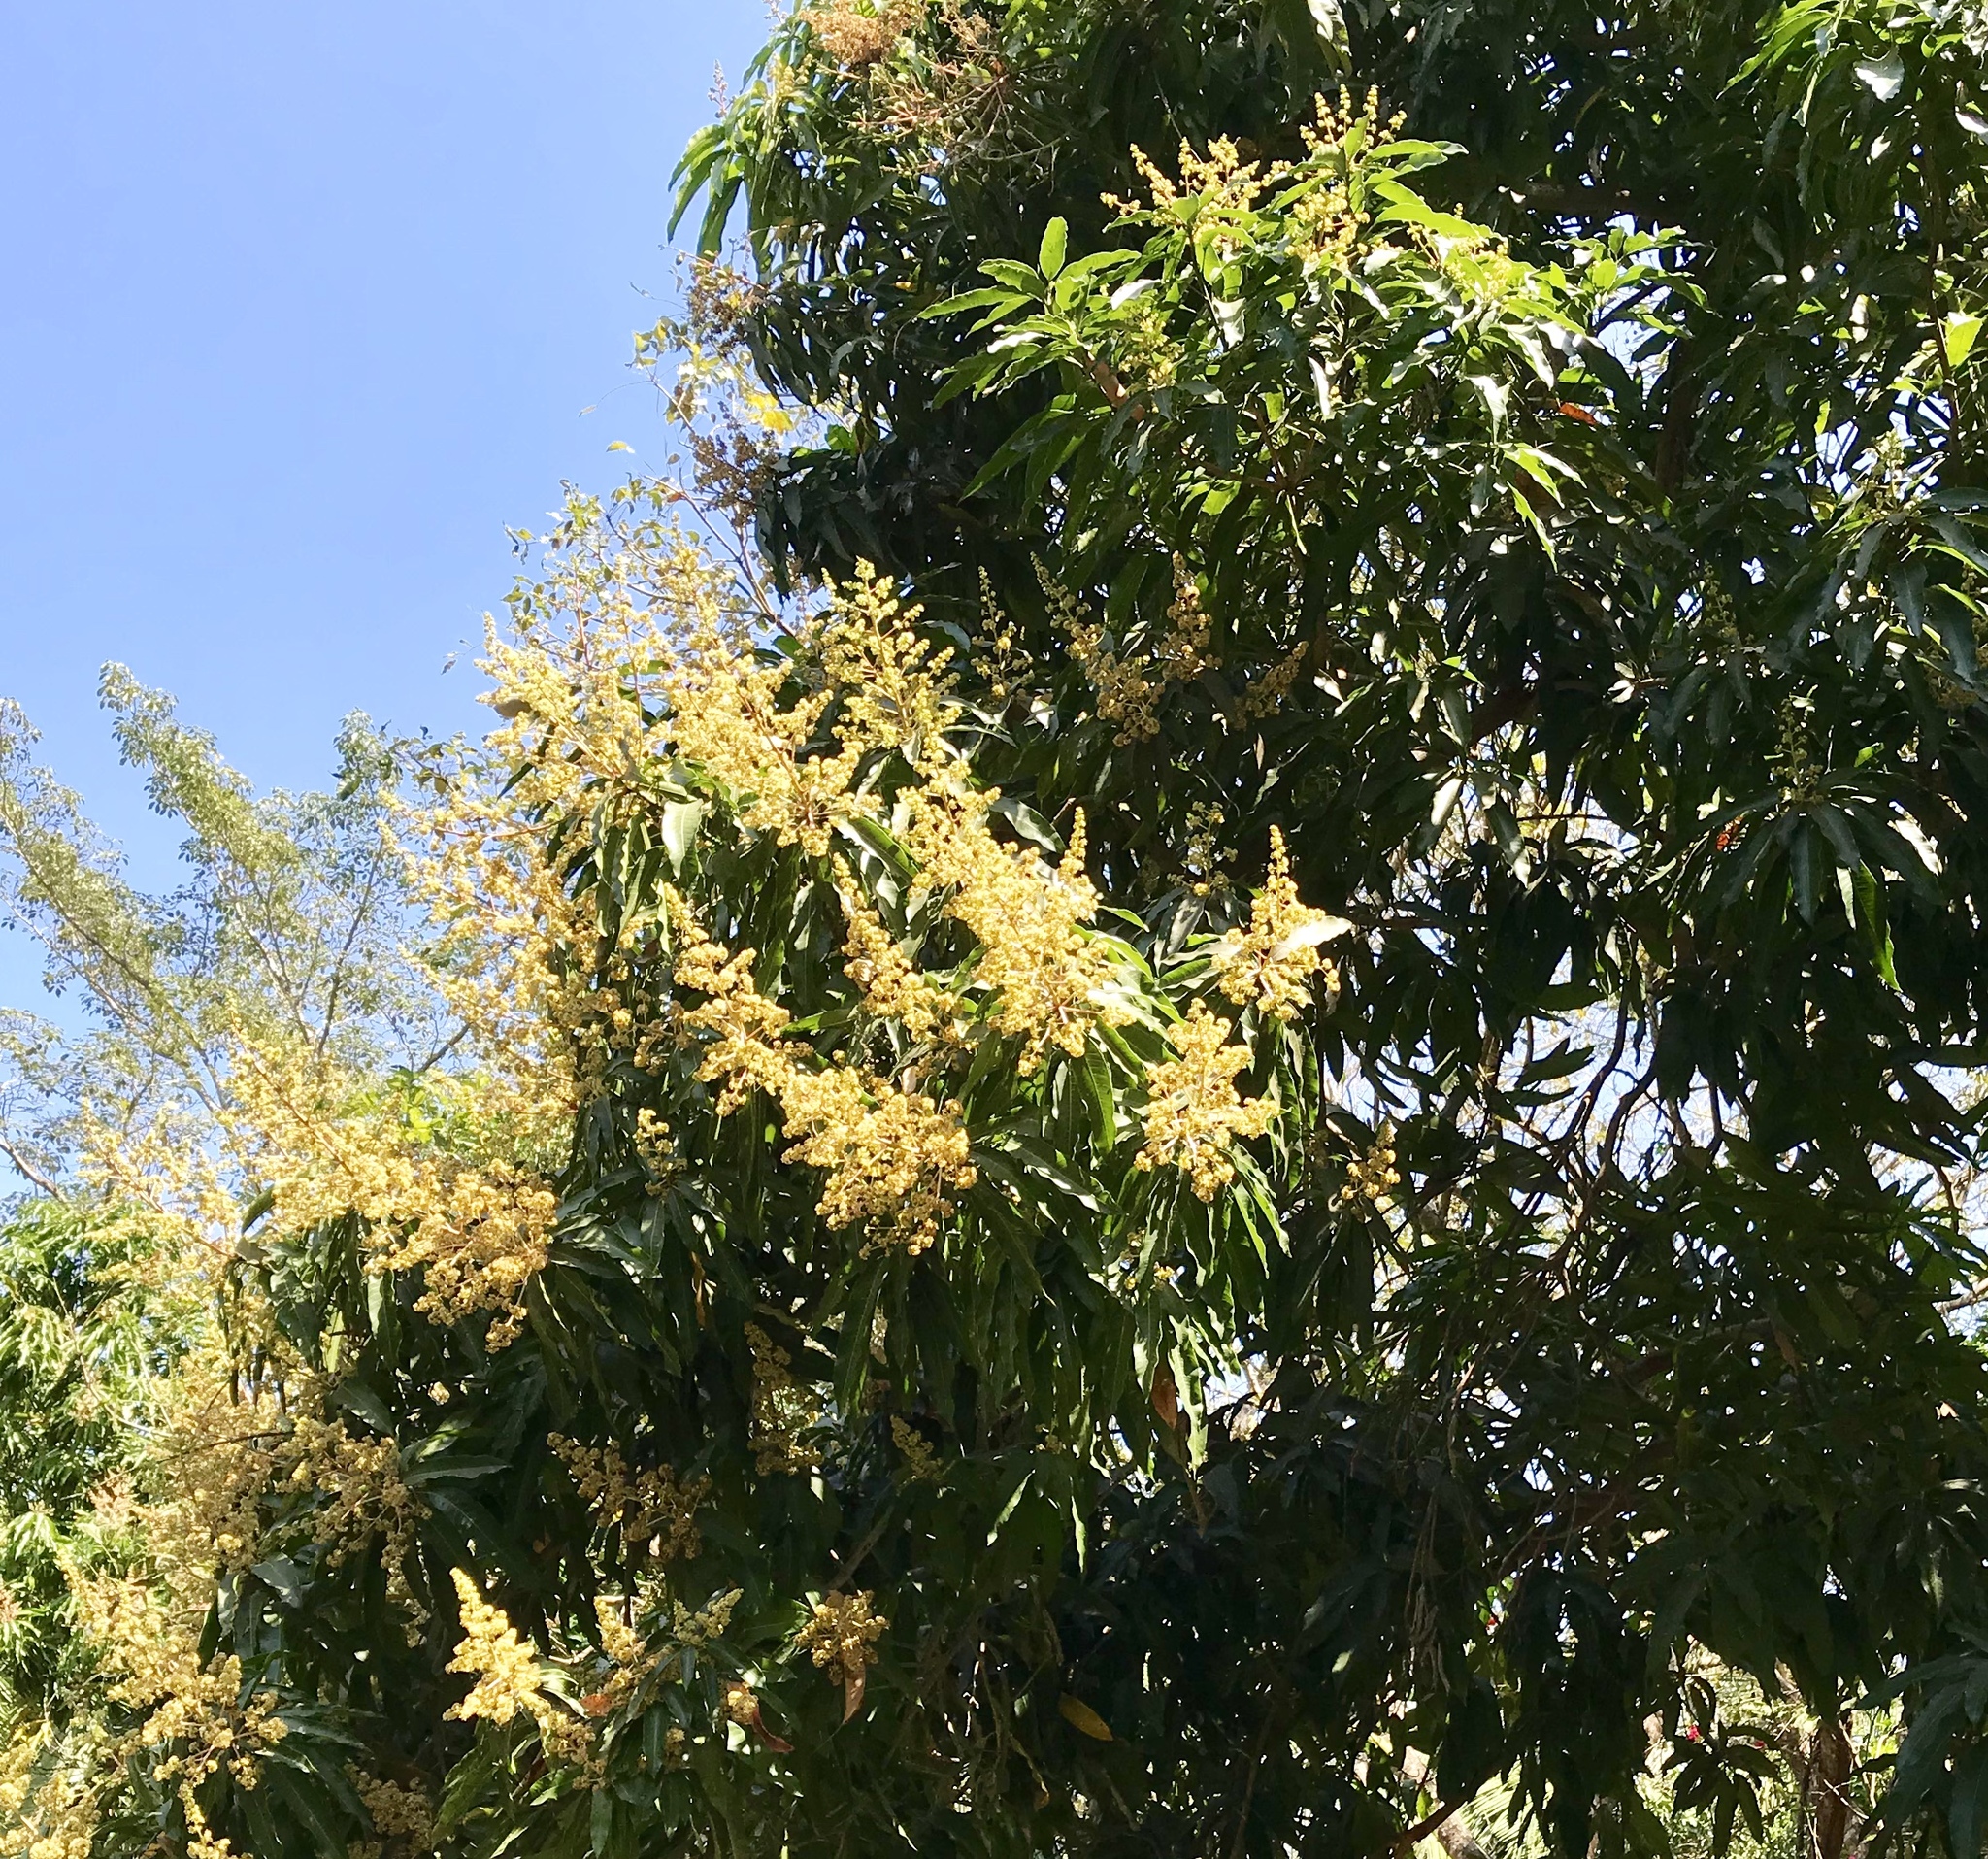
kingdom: Plantae
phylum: Tracheophyta
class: Magnoliopsida
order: Sapindales
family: Anacardiaceae
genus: Mangifera
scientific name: Mangifera indica
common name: Mango
